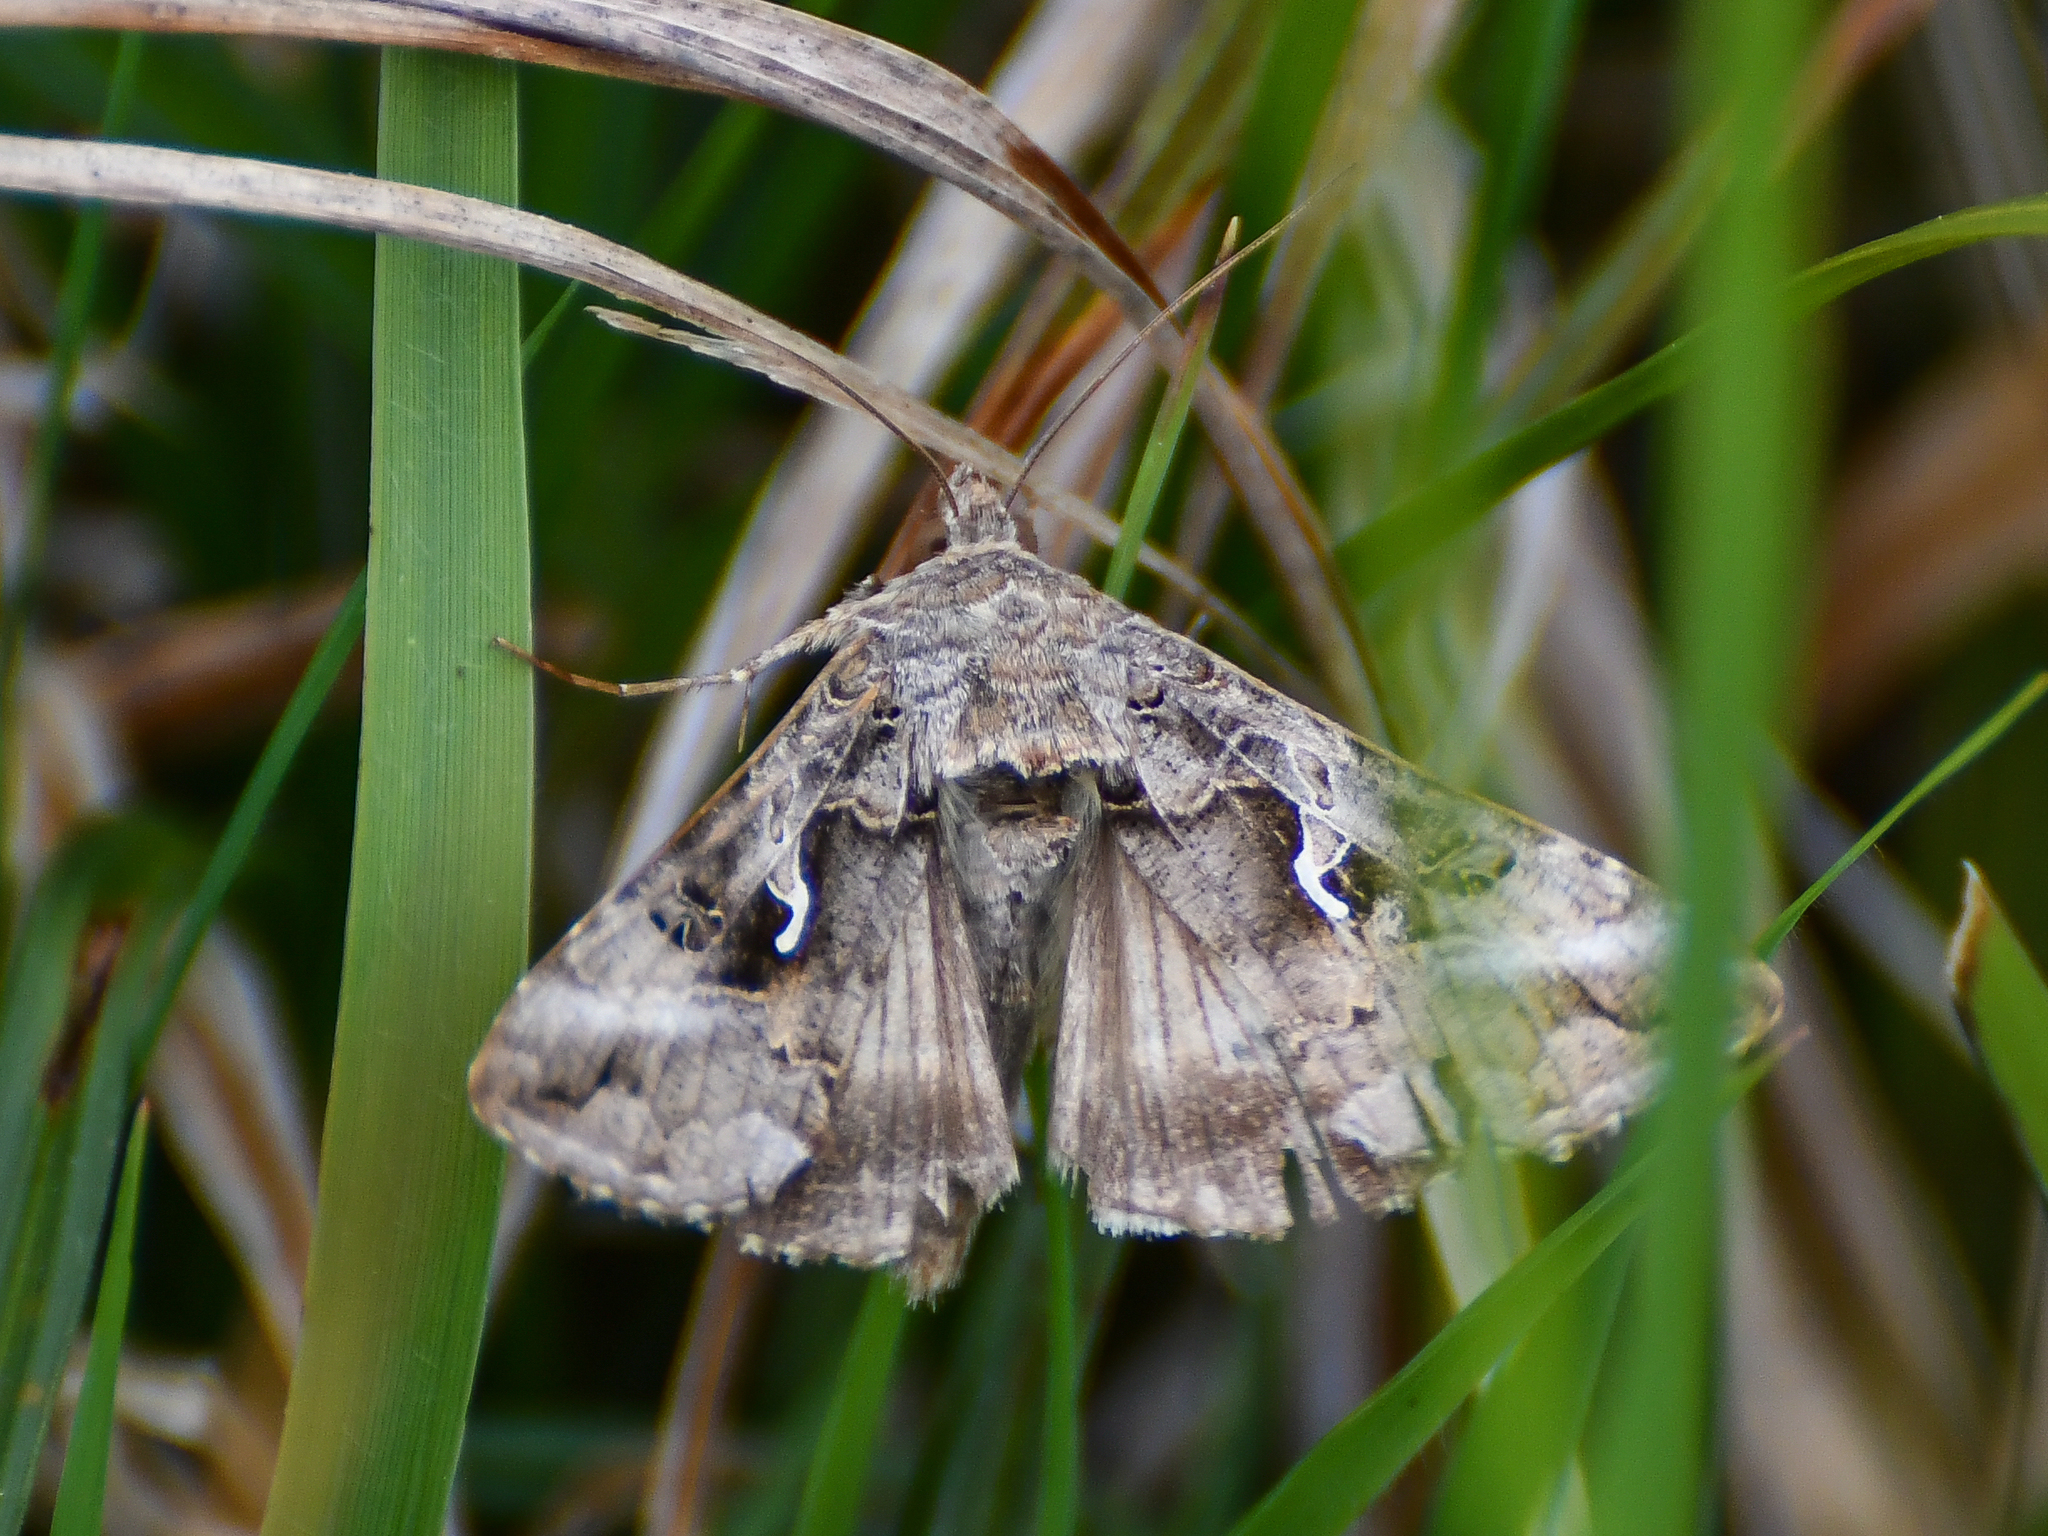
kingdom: Animalia
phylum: Arthropoda
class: Insecta
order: Lepidoptera
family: Noctuidae
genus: Autographa
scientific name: Autographa gamma
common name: Silver y
